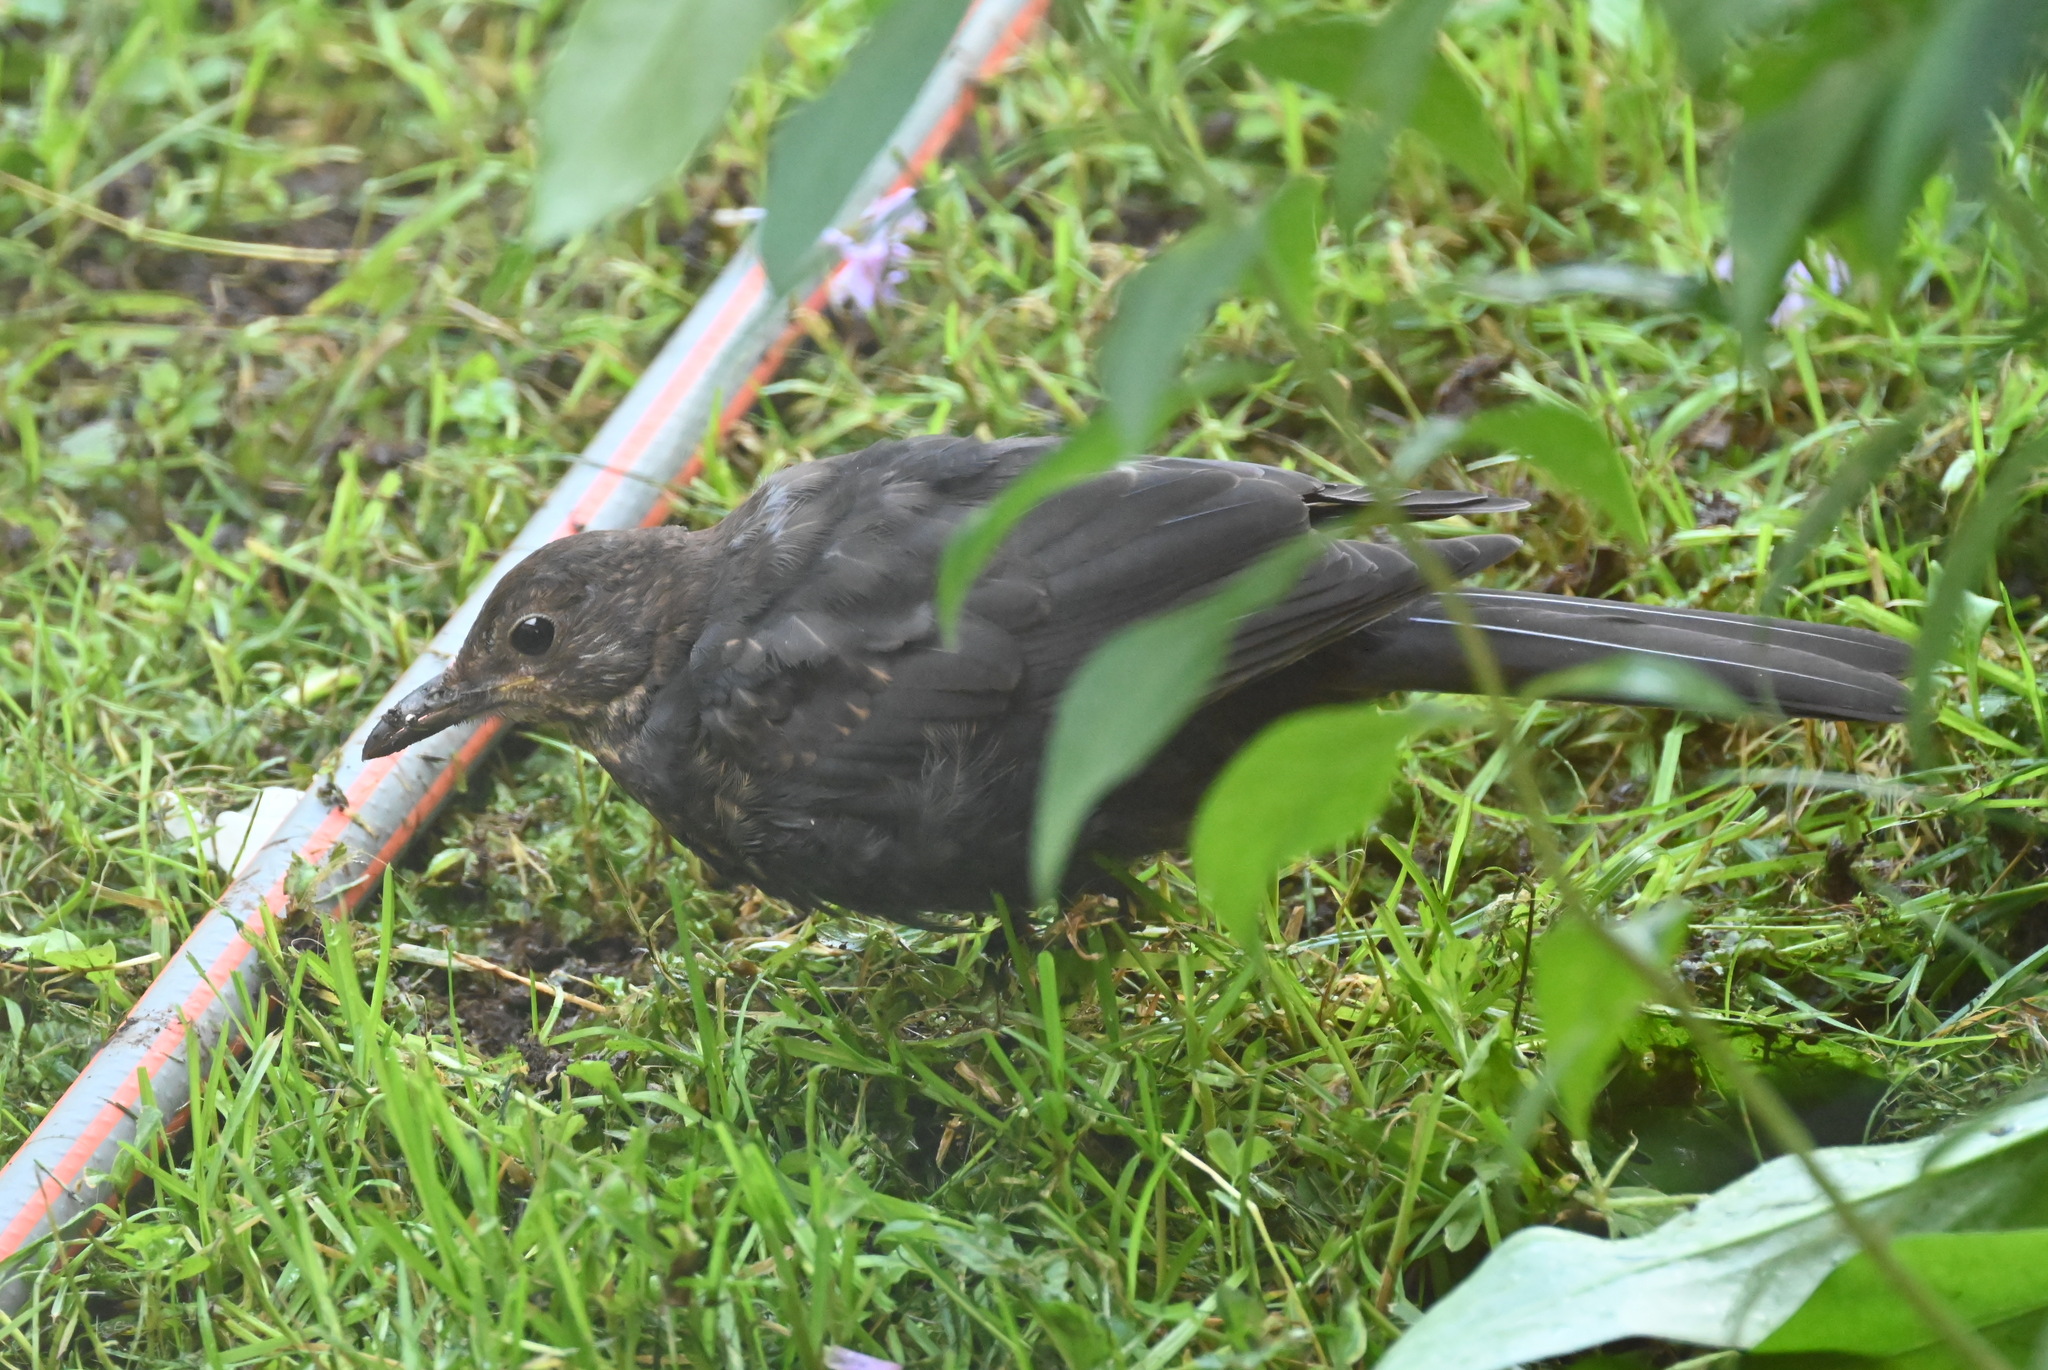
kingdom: Animalia
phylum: Chordata
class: Aves
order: Passeriformes
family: Turdidae
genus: Turdus
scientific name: Turdus merula
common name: Common blackbird
